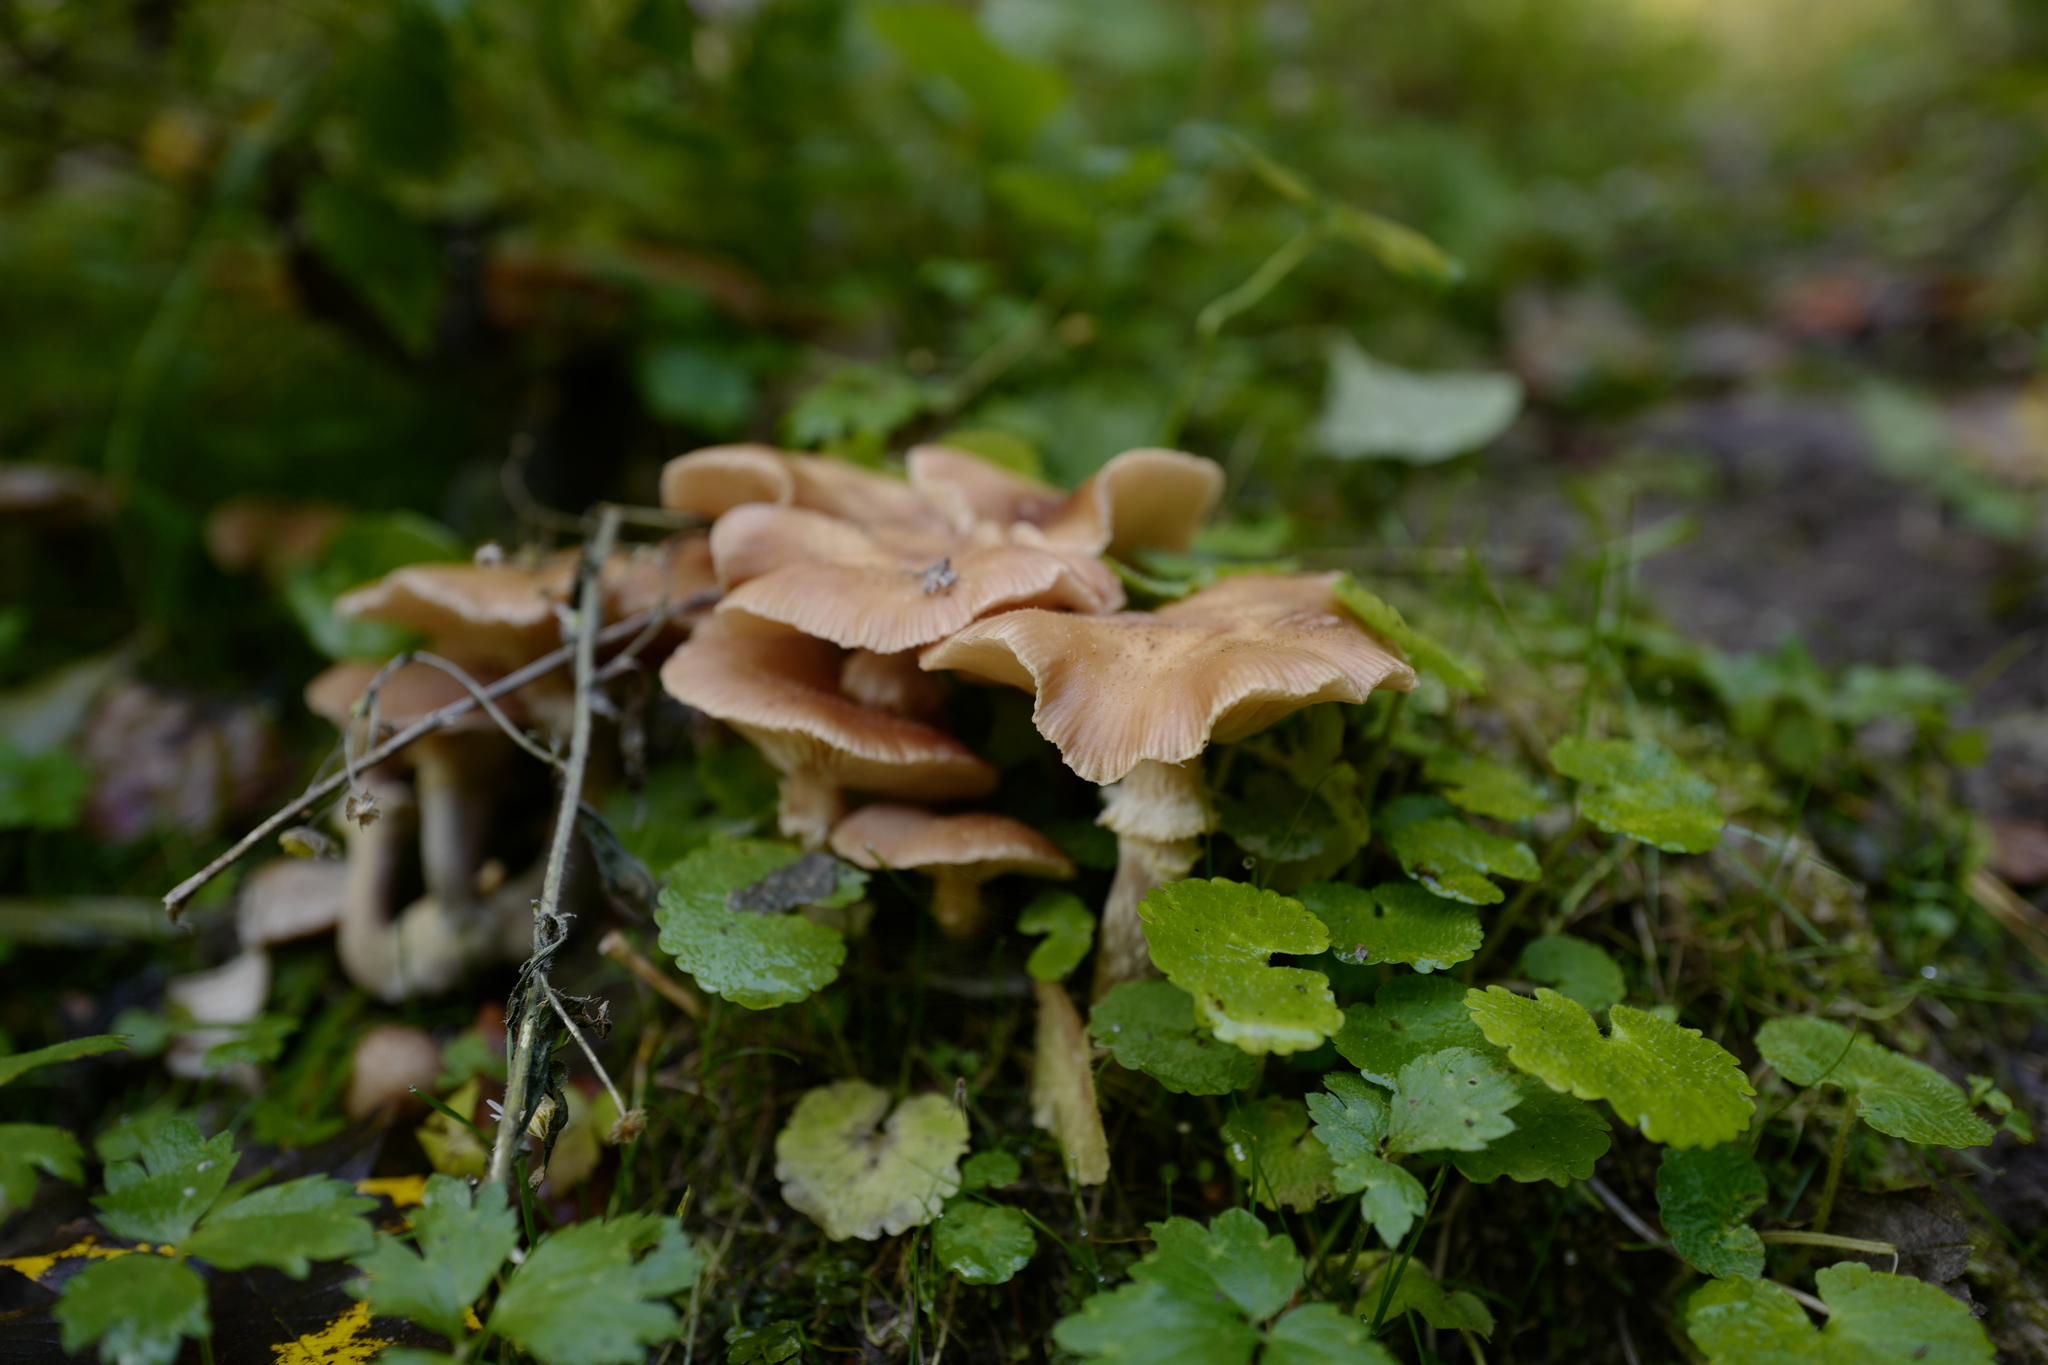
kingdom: Fungi
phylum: Basidiomycota
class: Agaricomycetes
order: Agaricales
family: Physalacriaceae
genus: Armillaria
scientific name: Armillaria gallica
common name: Bulbous honey fungus
